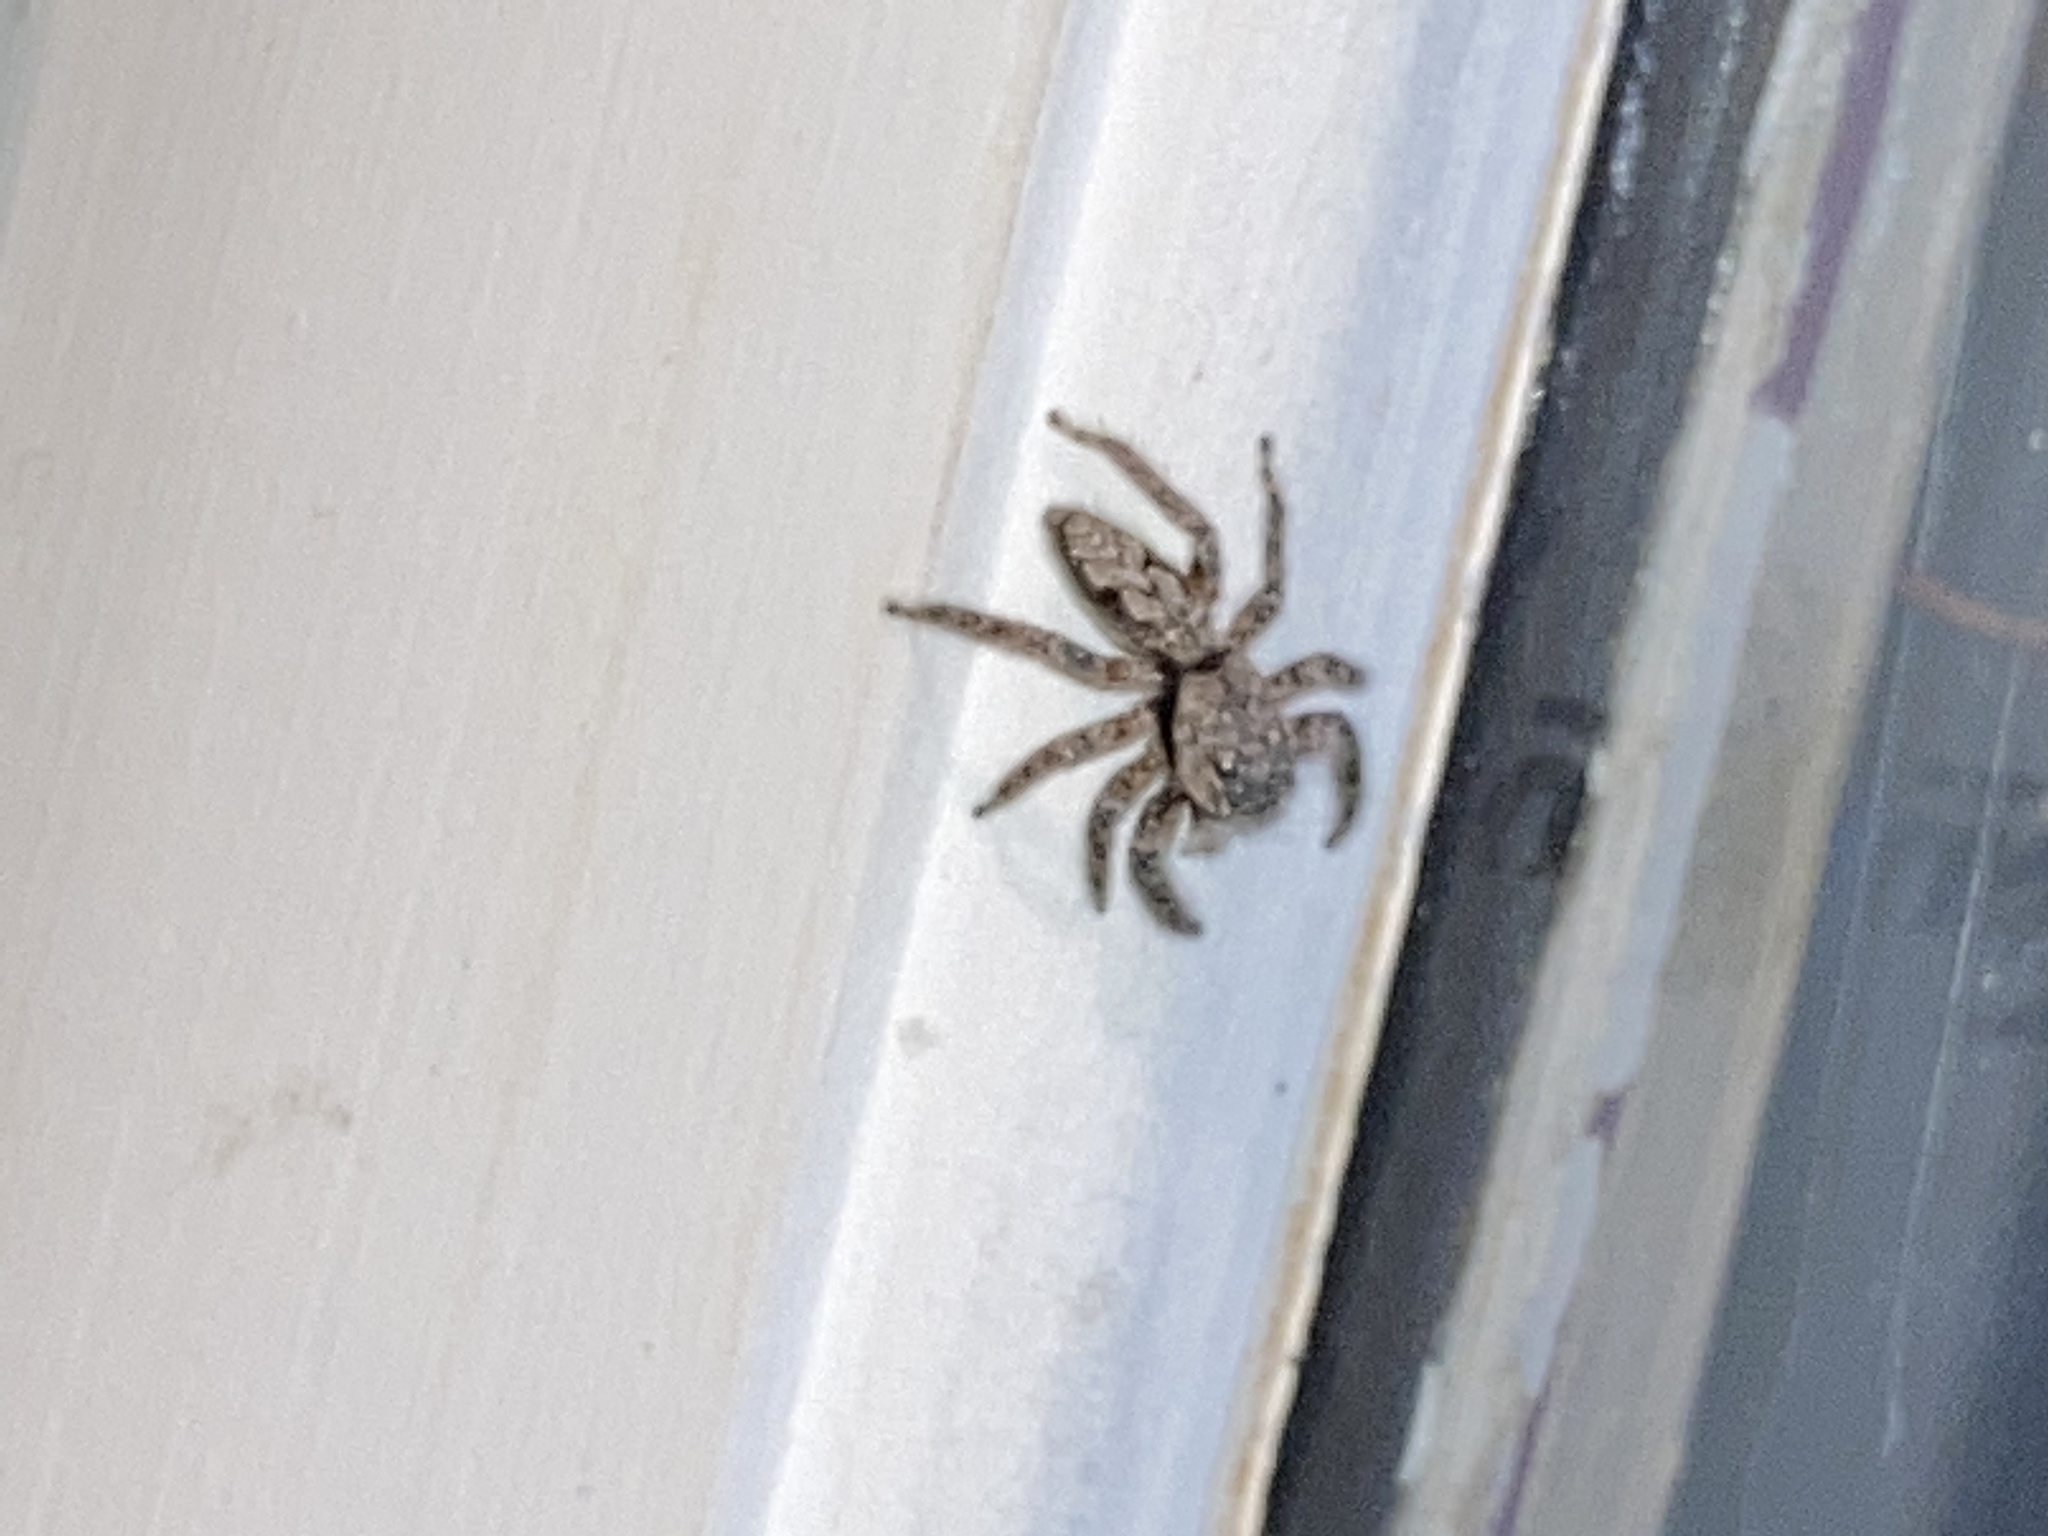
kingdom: Animalia
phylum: Arthropoda
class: Arachnida
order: Araneae
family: Salticidae
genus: Platycryptus
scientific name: Platycryptus undatus
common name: Tan jumping spider
